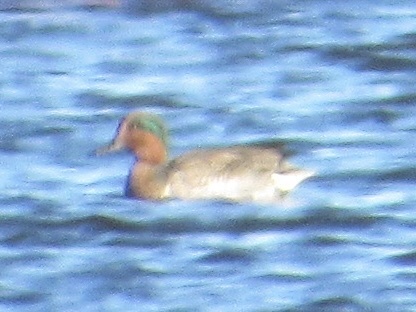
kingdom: Animalia
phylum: Chordata
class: Aves
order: Anseriformes
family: Anatidae
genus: Anas
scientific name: Anas crecca
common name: Eurasian teal
